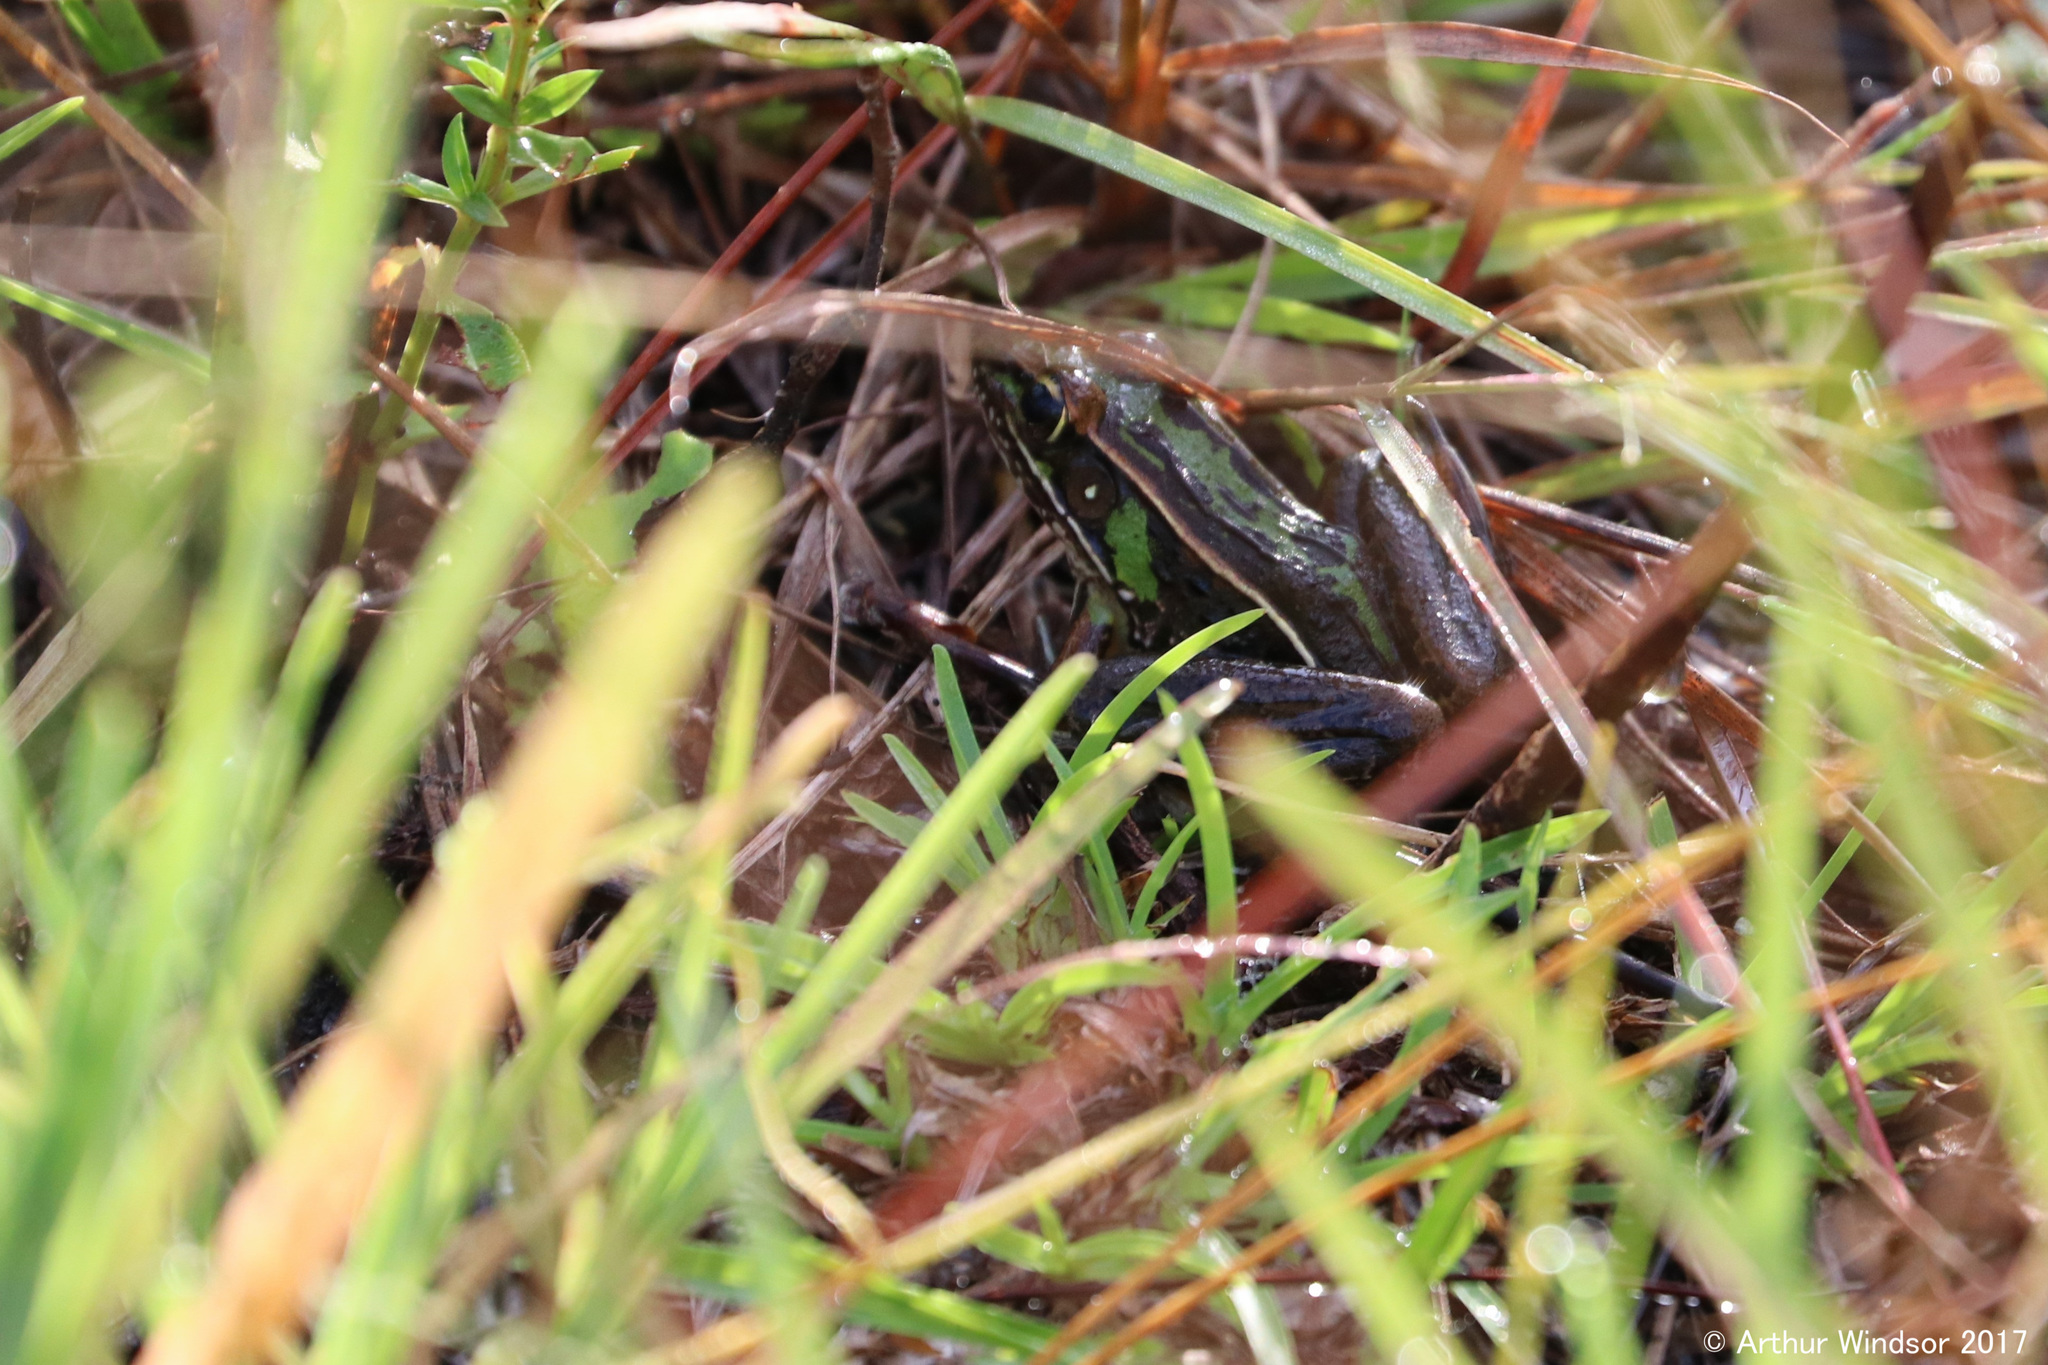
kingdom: Animalia
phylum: Chordata
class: Amphibia
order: Anura
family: Ranidae
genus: Lithobates
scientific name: Lithobates sphenocephalus
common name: Southern leopard frog
